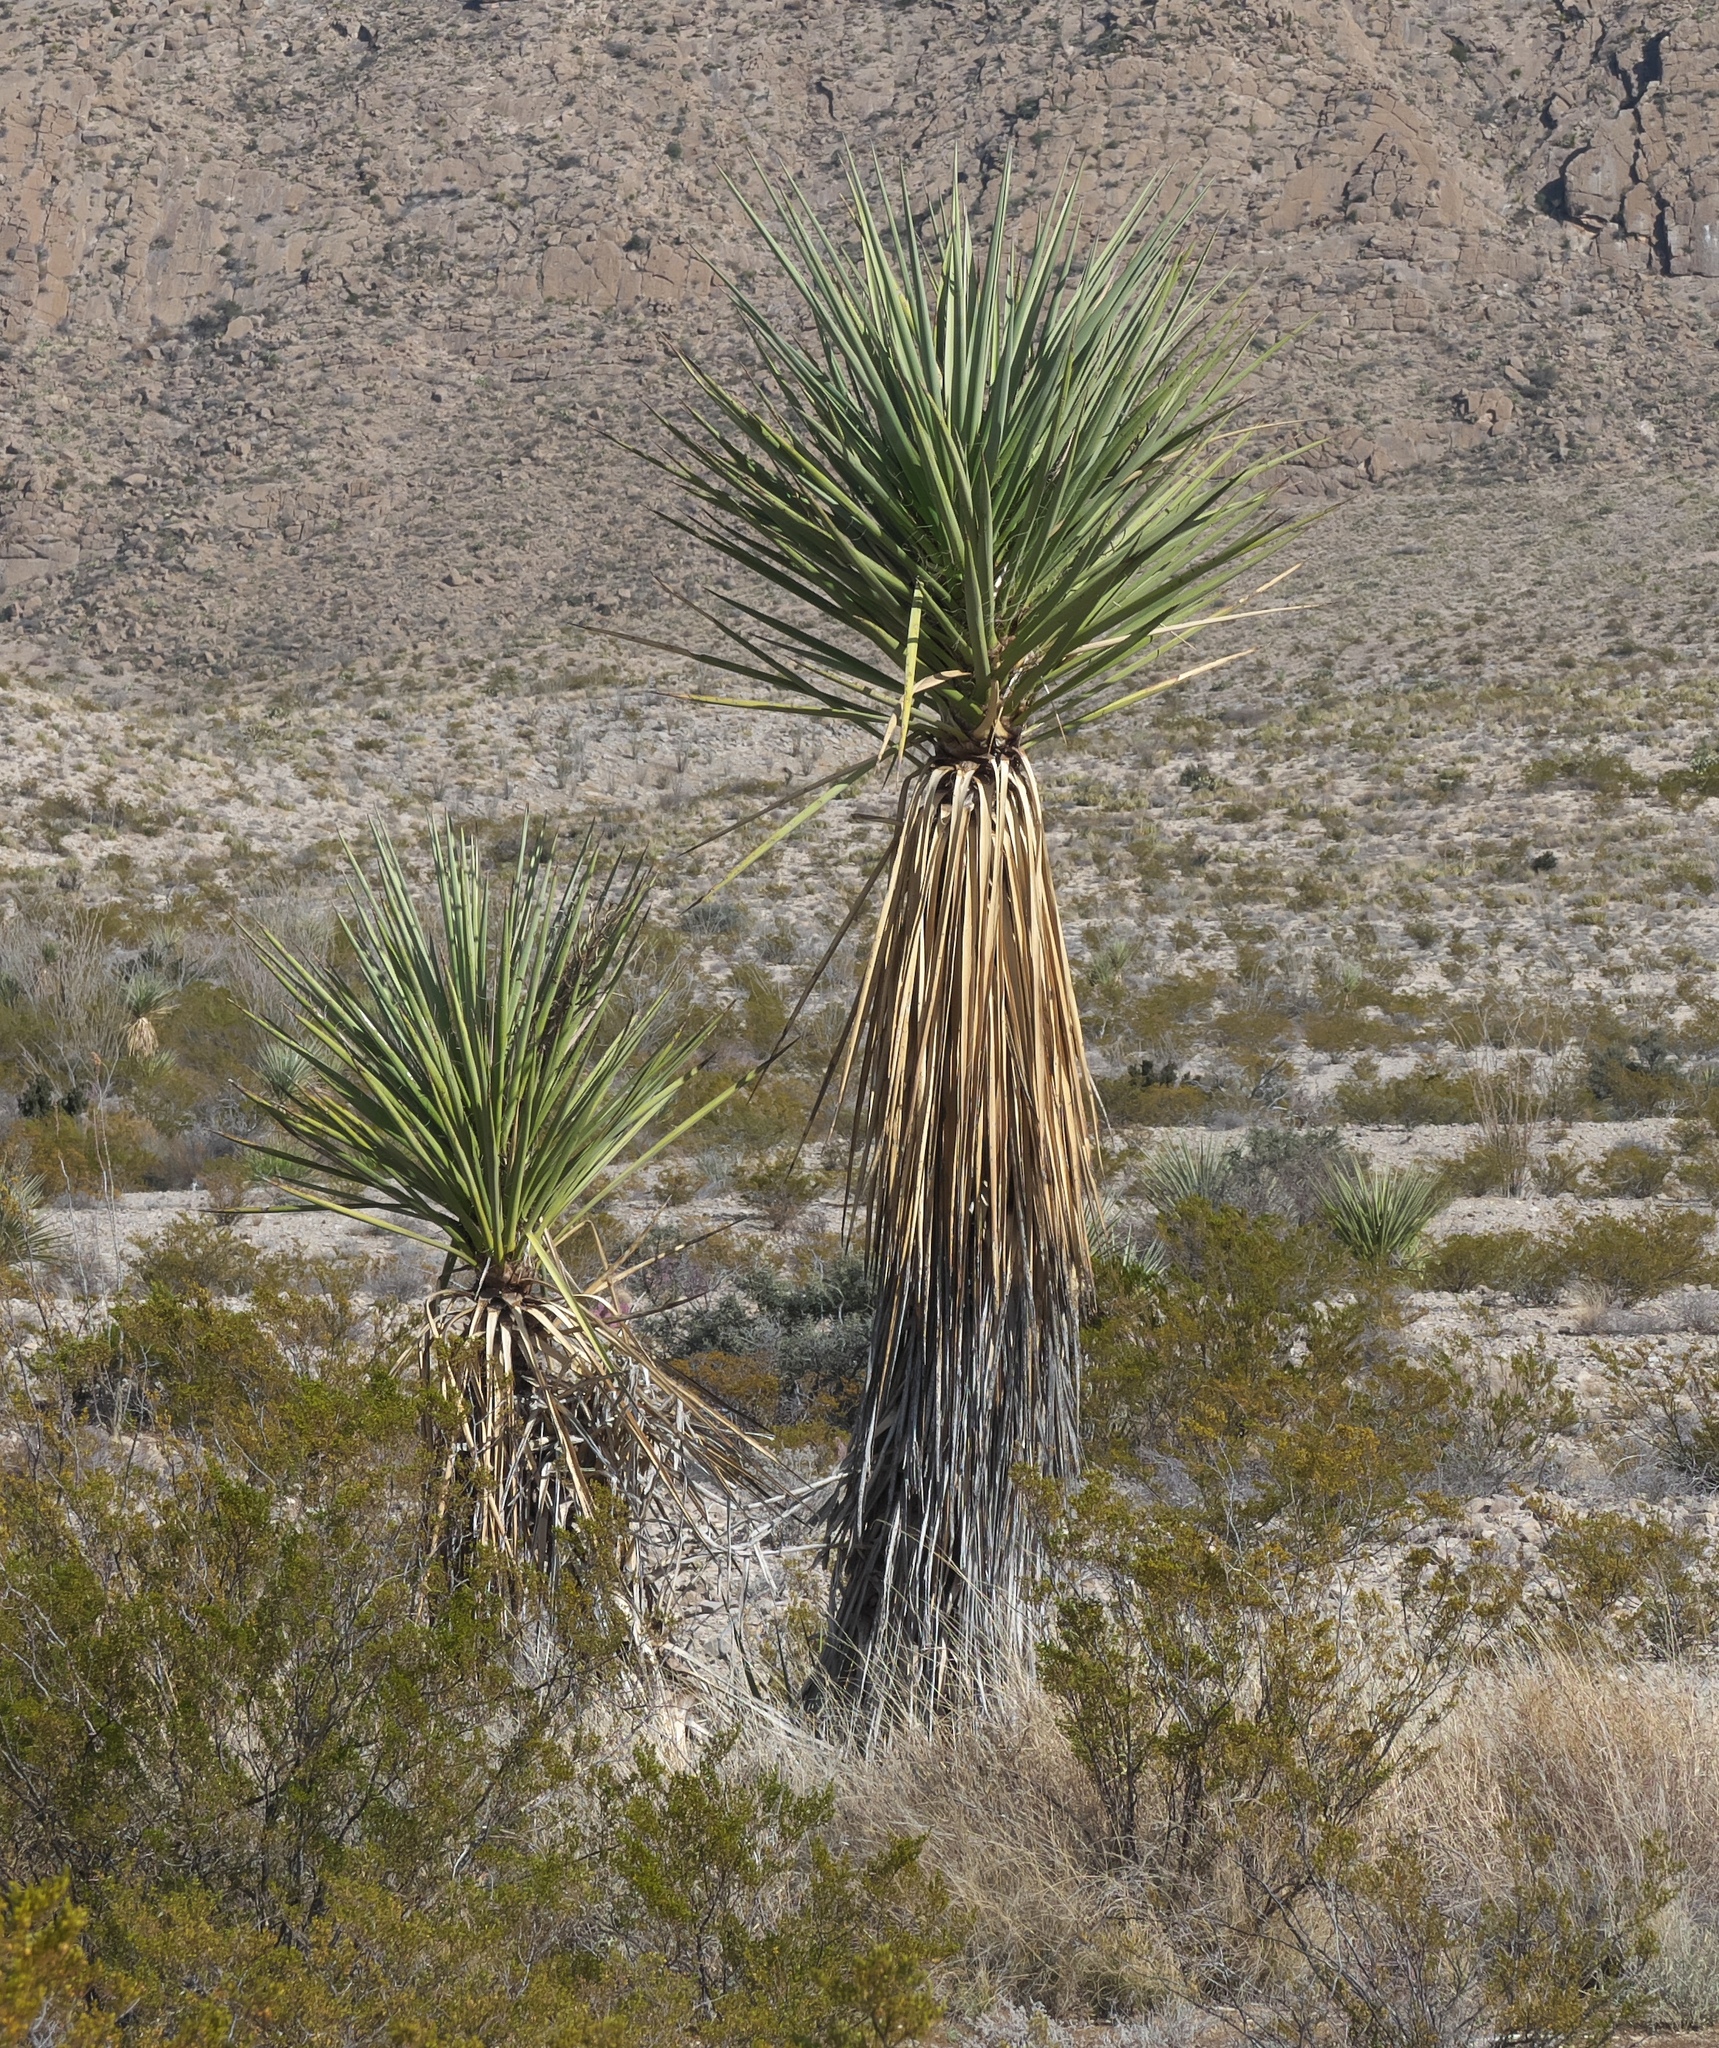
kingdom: Plantae
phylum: Tracheophyta
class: Liliopsida
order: Asparagales
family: Asparagaceae
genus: Yucca
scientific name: Yucca treculiana
